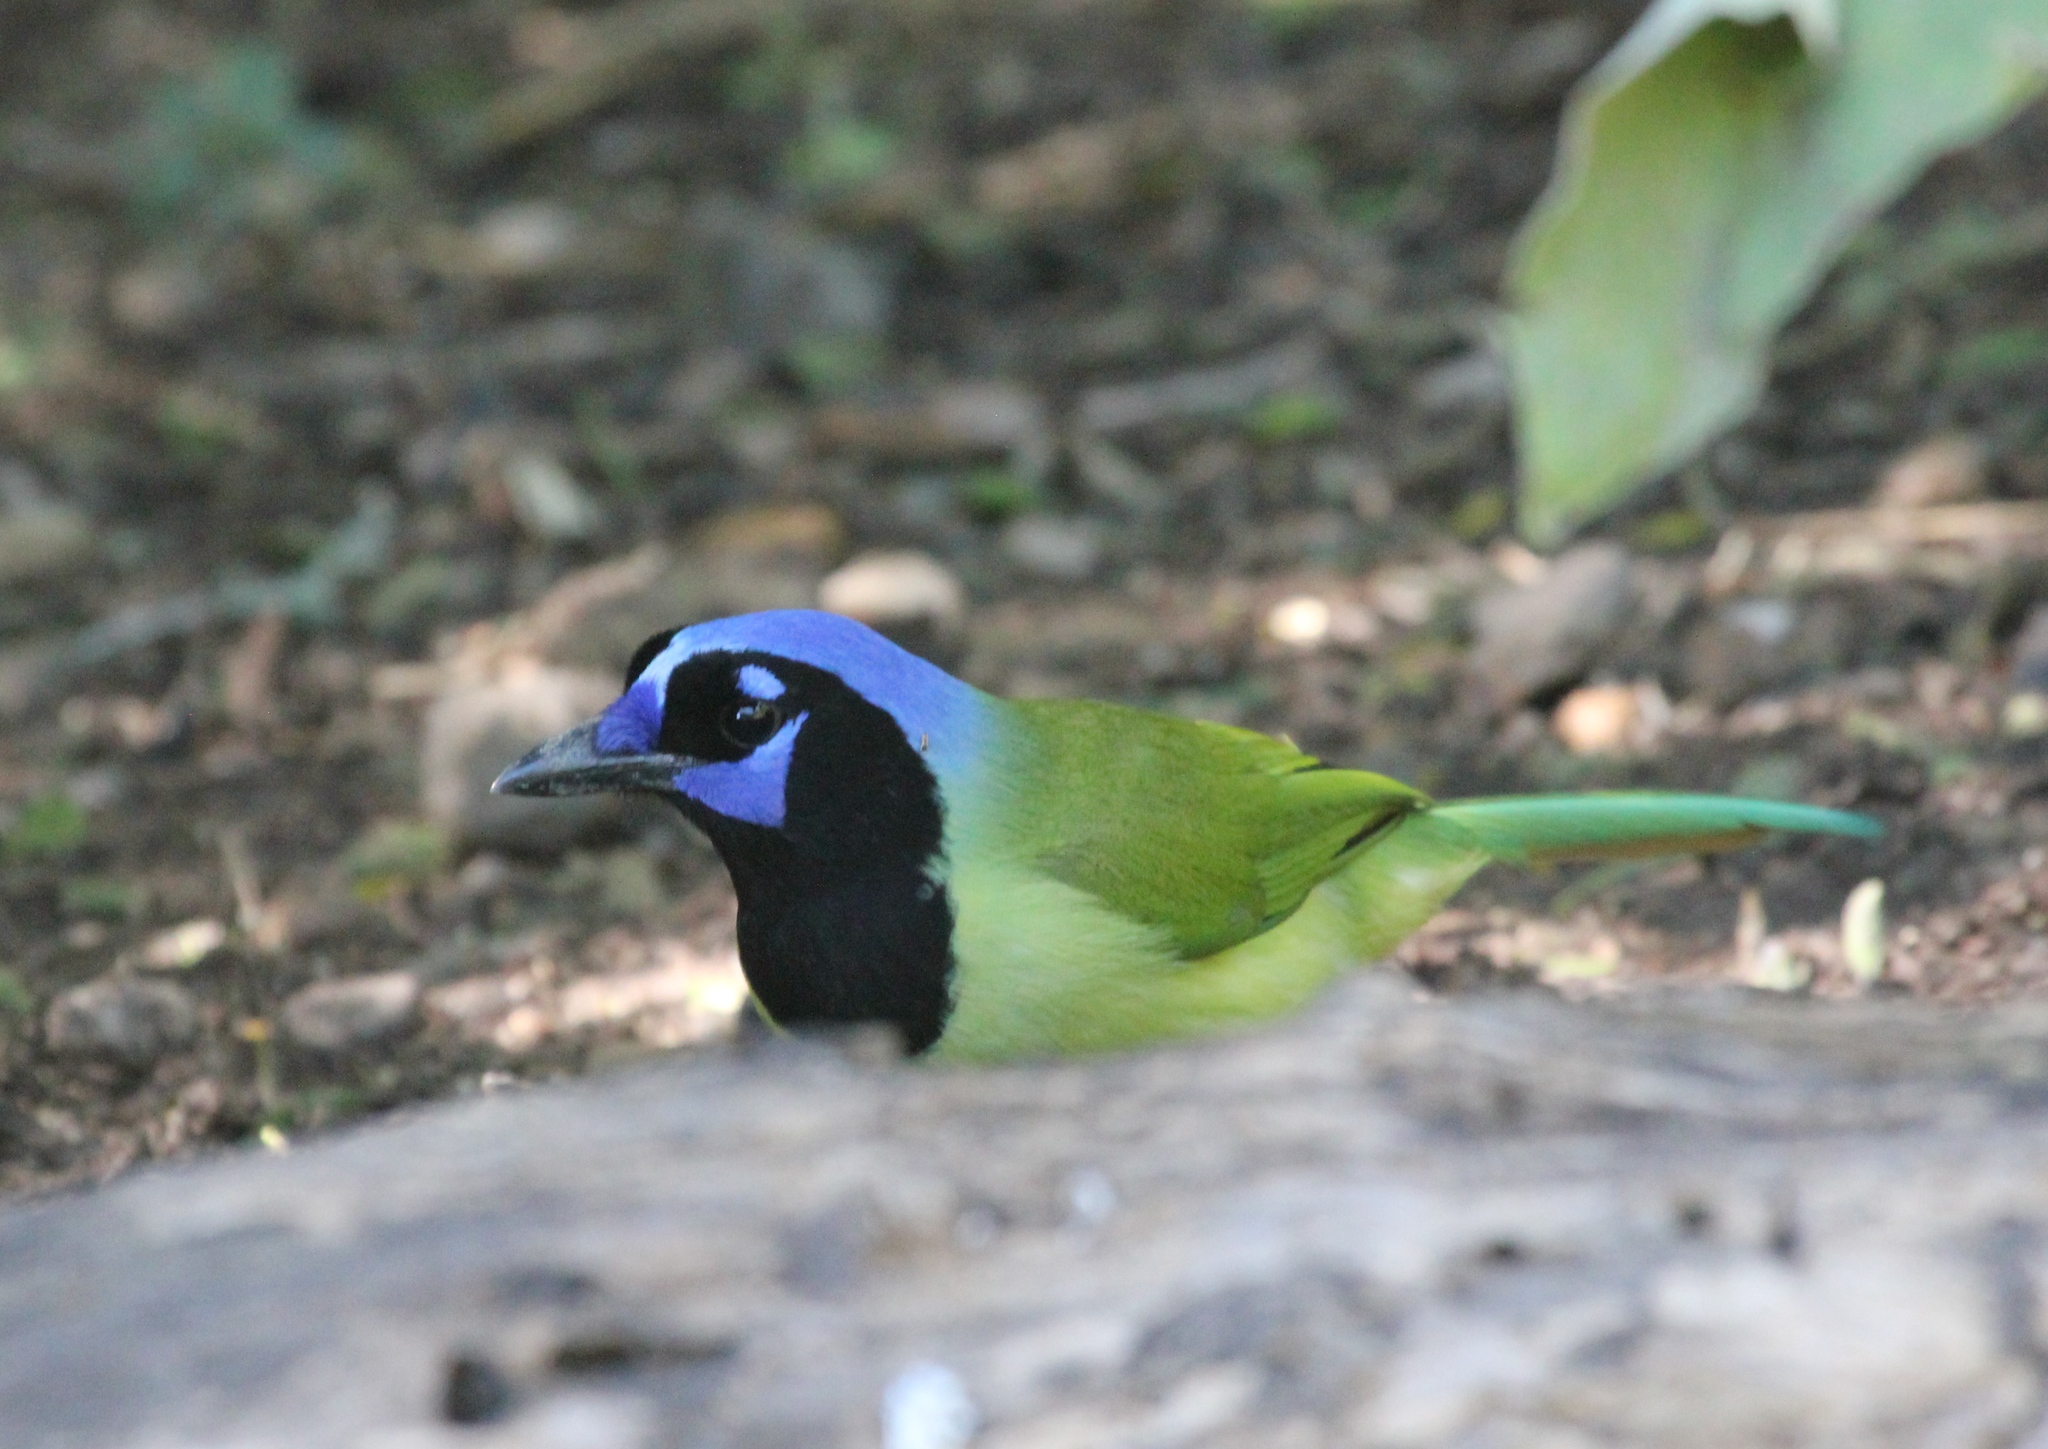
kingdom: Animalia
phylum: Chordata
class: Aves
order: Passeriformes
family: Corvidae
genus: Cyanocorax
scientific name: Cyanocorax yncas
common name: Green jay
